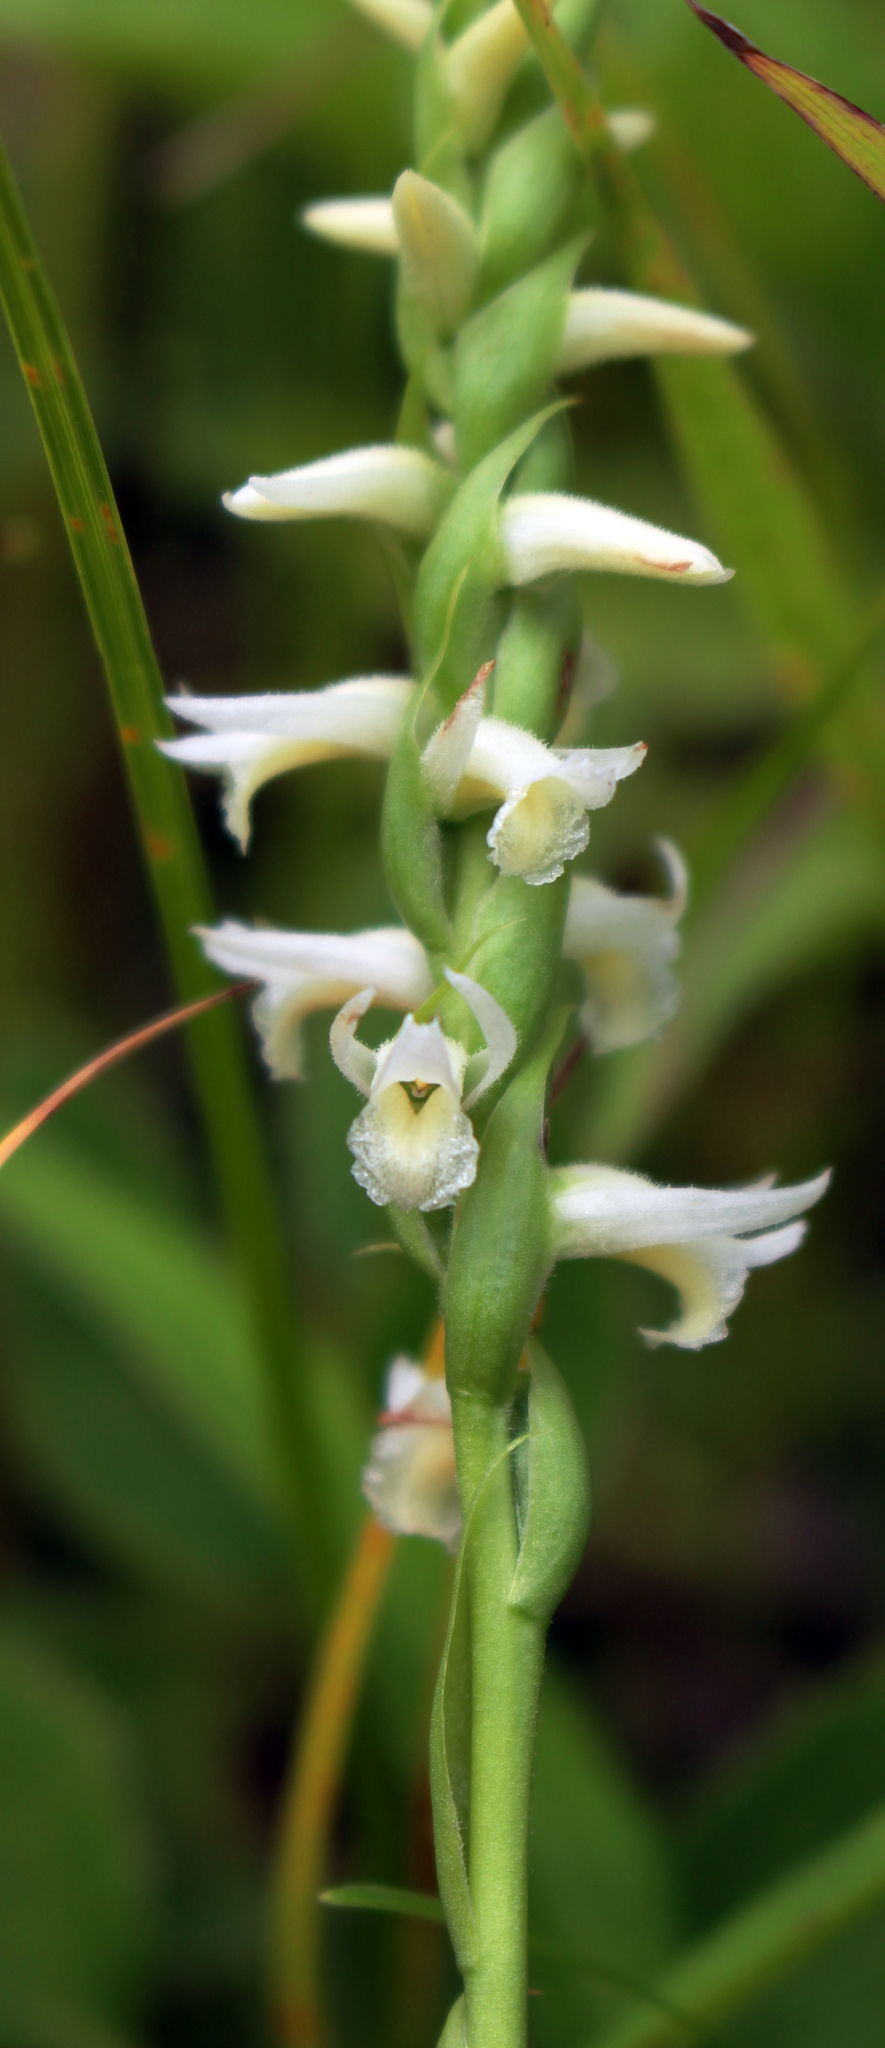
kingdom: Plantae
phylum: Tracheophyta
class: Liliopsida
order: Asparagales
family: Orchidaceae
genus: Spiranthes
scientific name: Spiranthes magnicamporum
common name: Great plains ladies'-tresses
